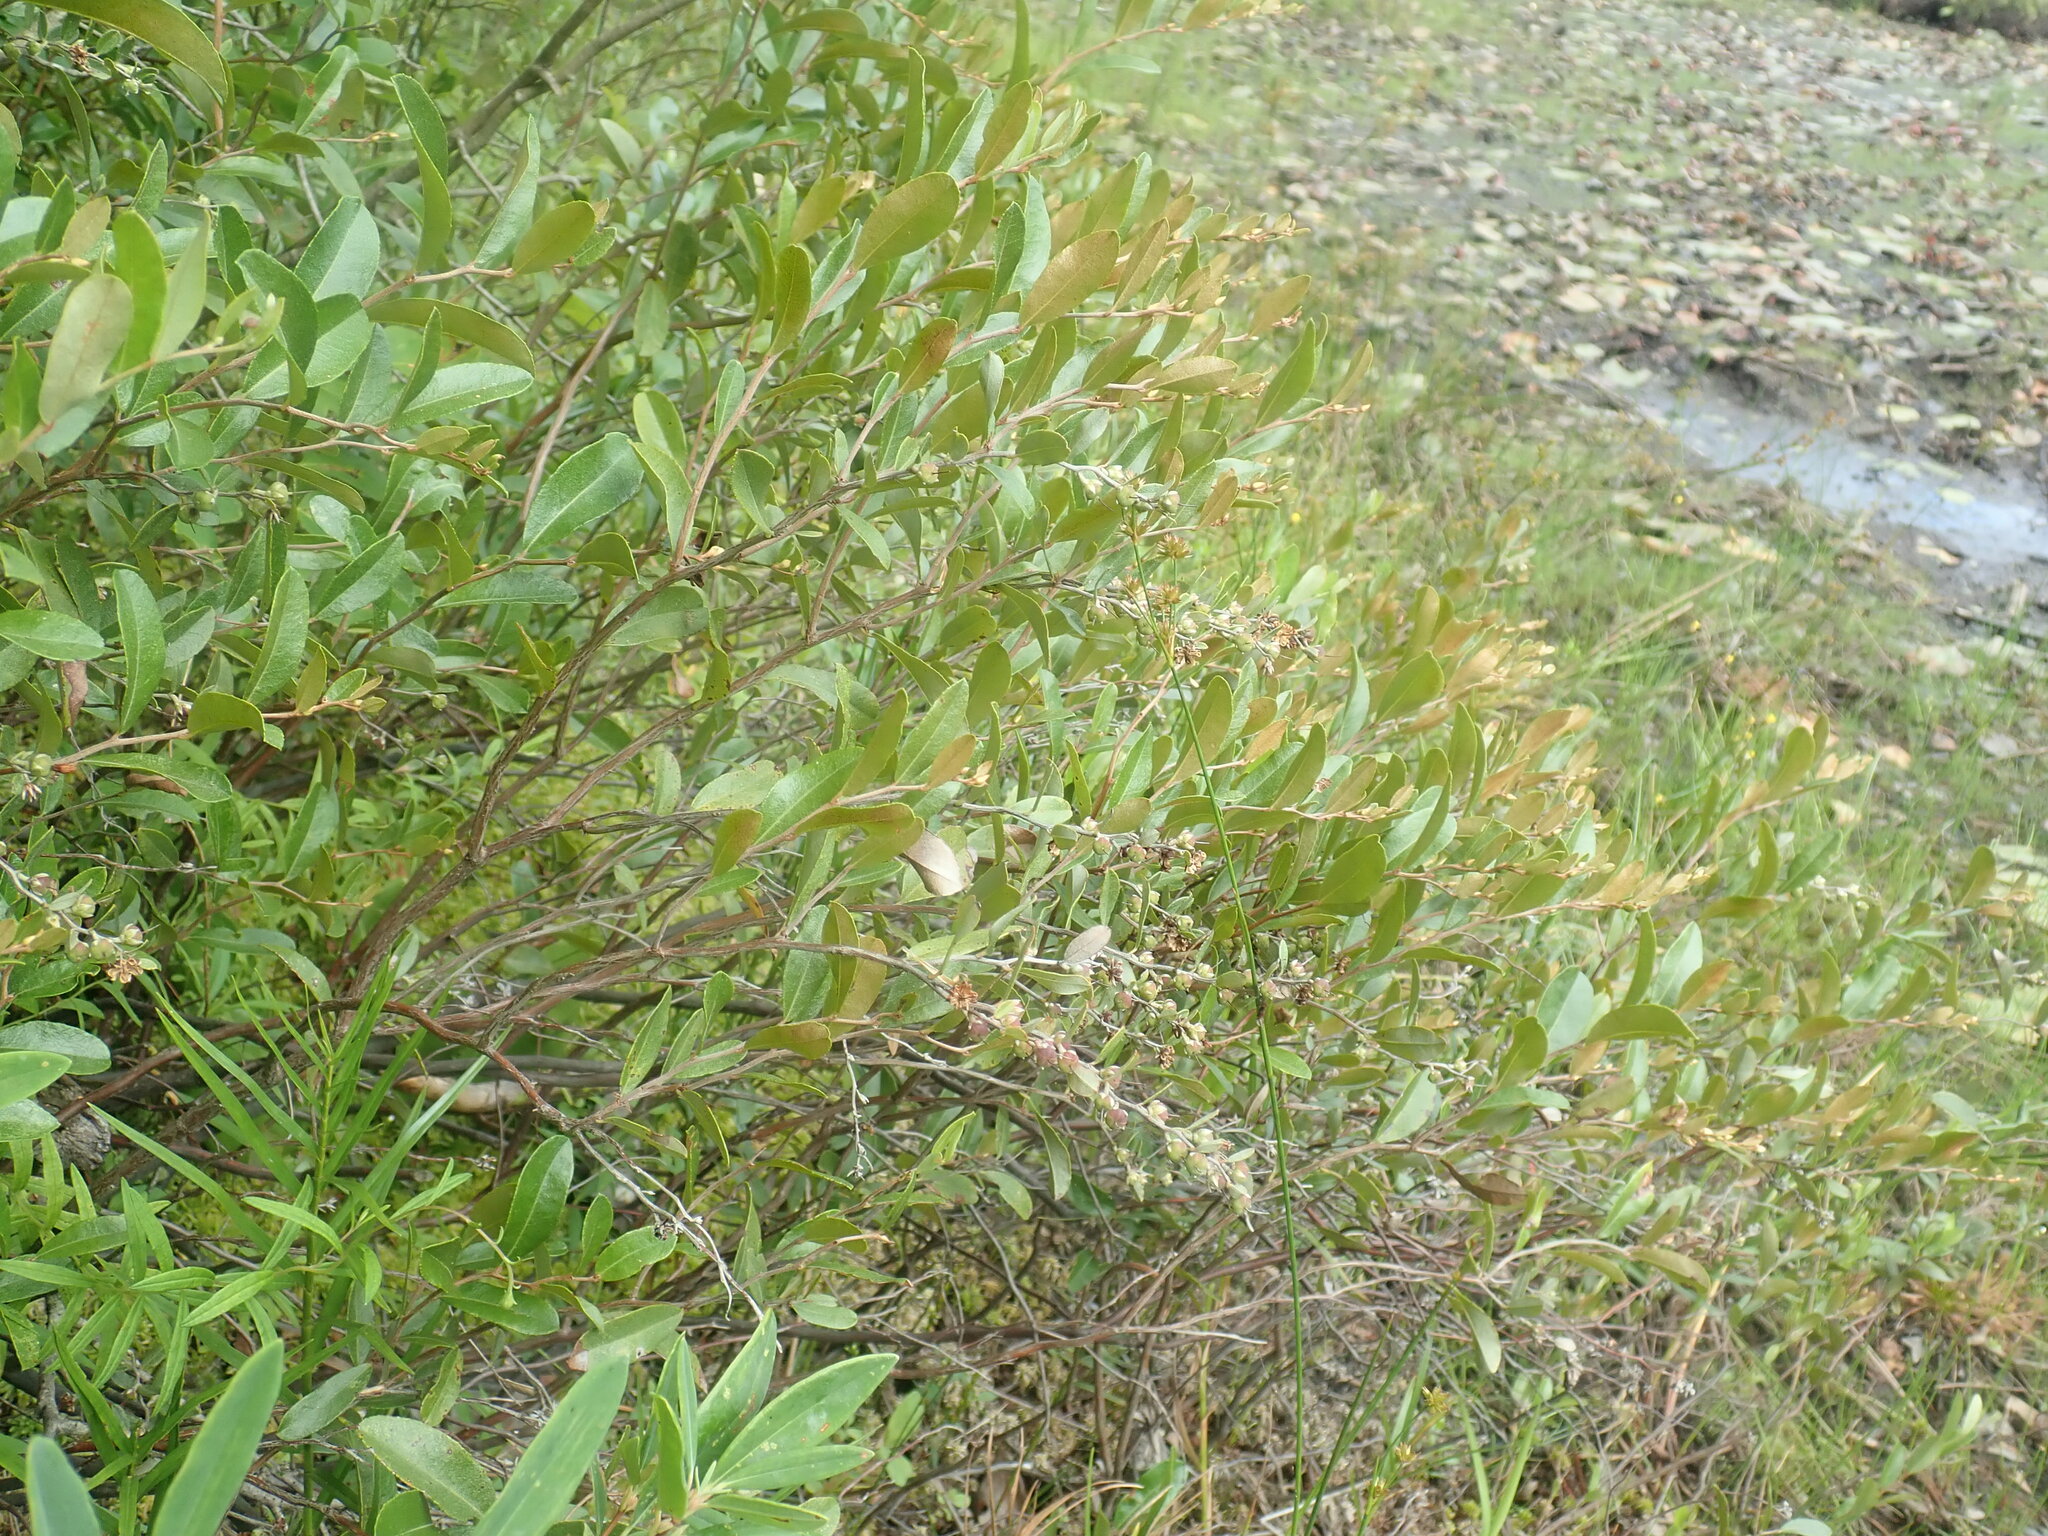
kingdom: Plantae
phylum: Tracheophyta
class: Magnoliopsida
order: Ericales
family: Ericaceae
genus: Chamaedaphne
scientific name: Chamaedaphne calyculata
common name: Leatherleaf
